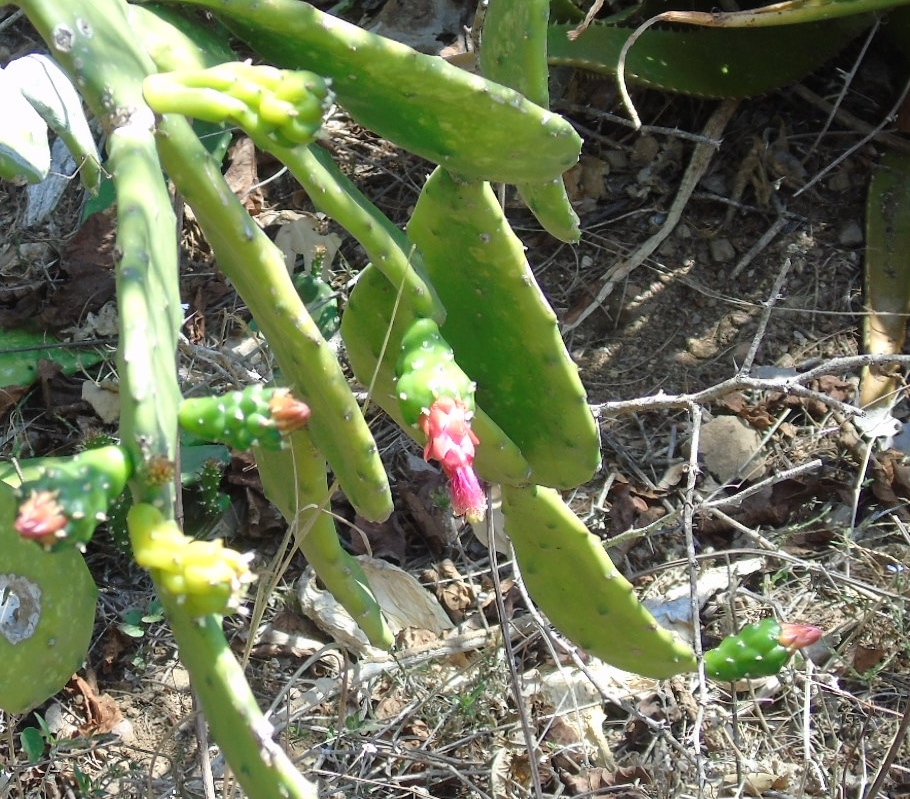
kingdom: Plantae
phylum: Tracheophyta
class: Magnoliopsida
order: Caryophyllales
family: Cactaceae
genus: Opuntia
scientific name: Opuntia cochenillifera
